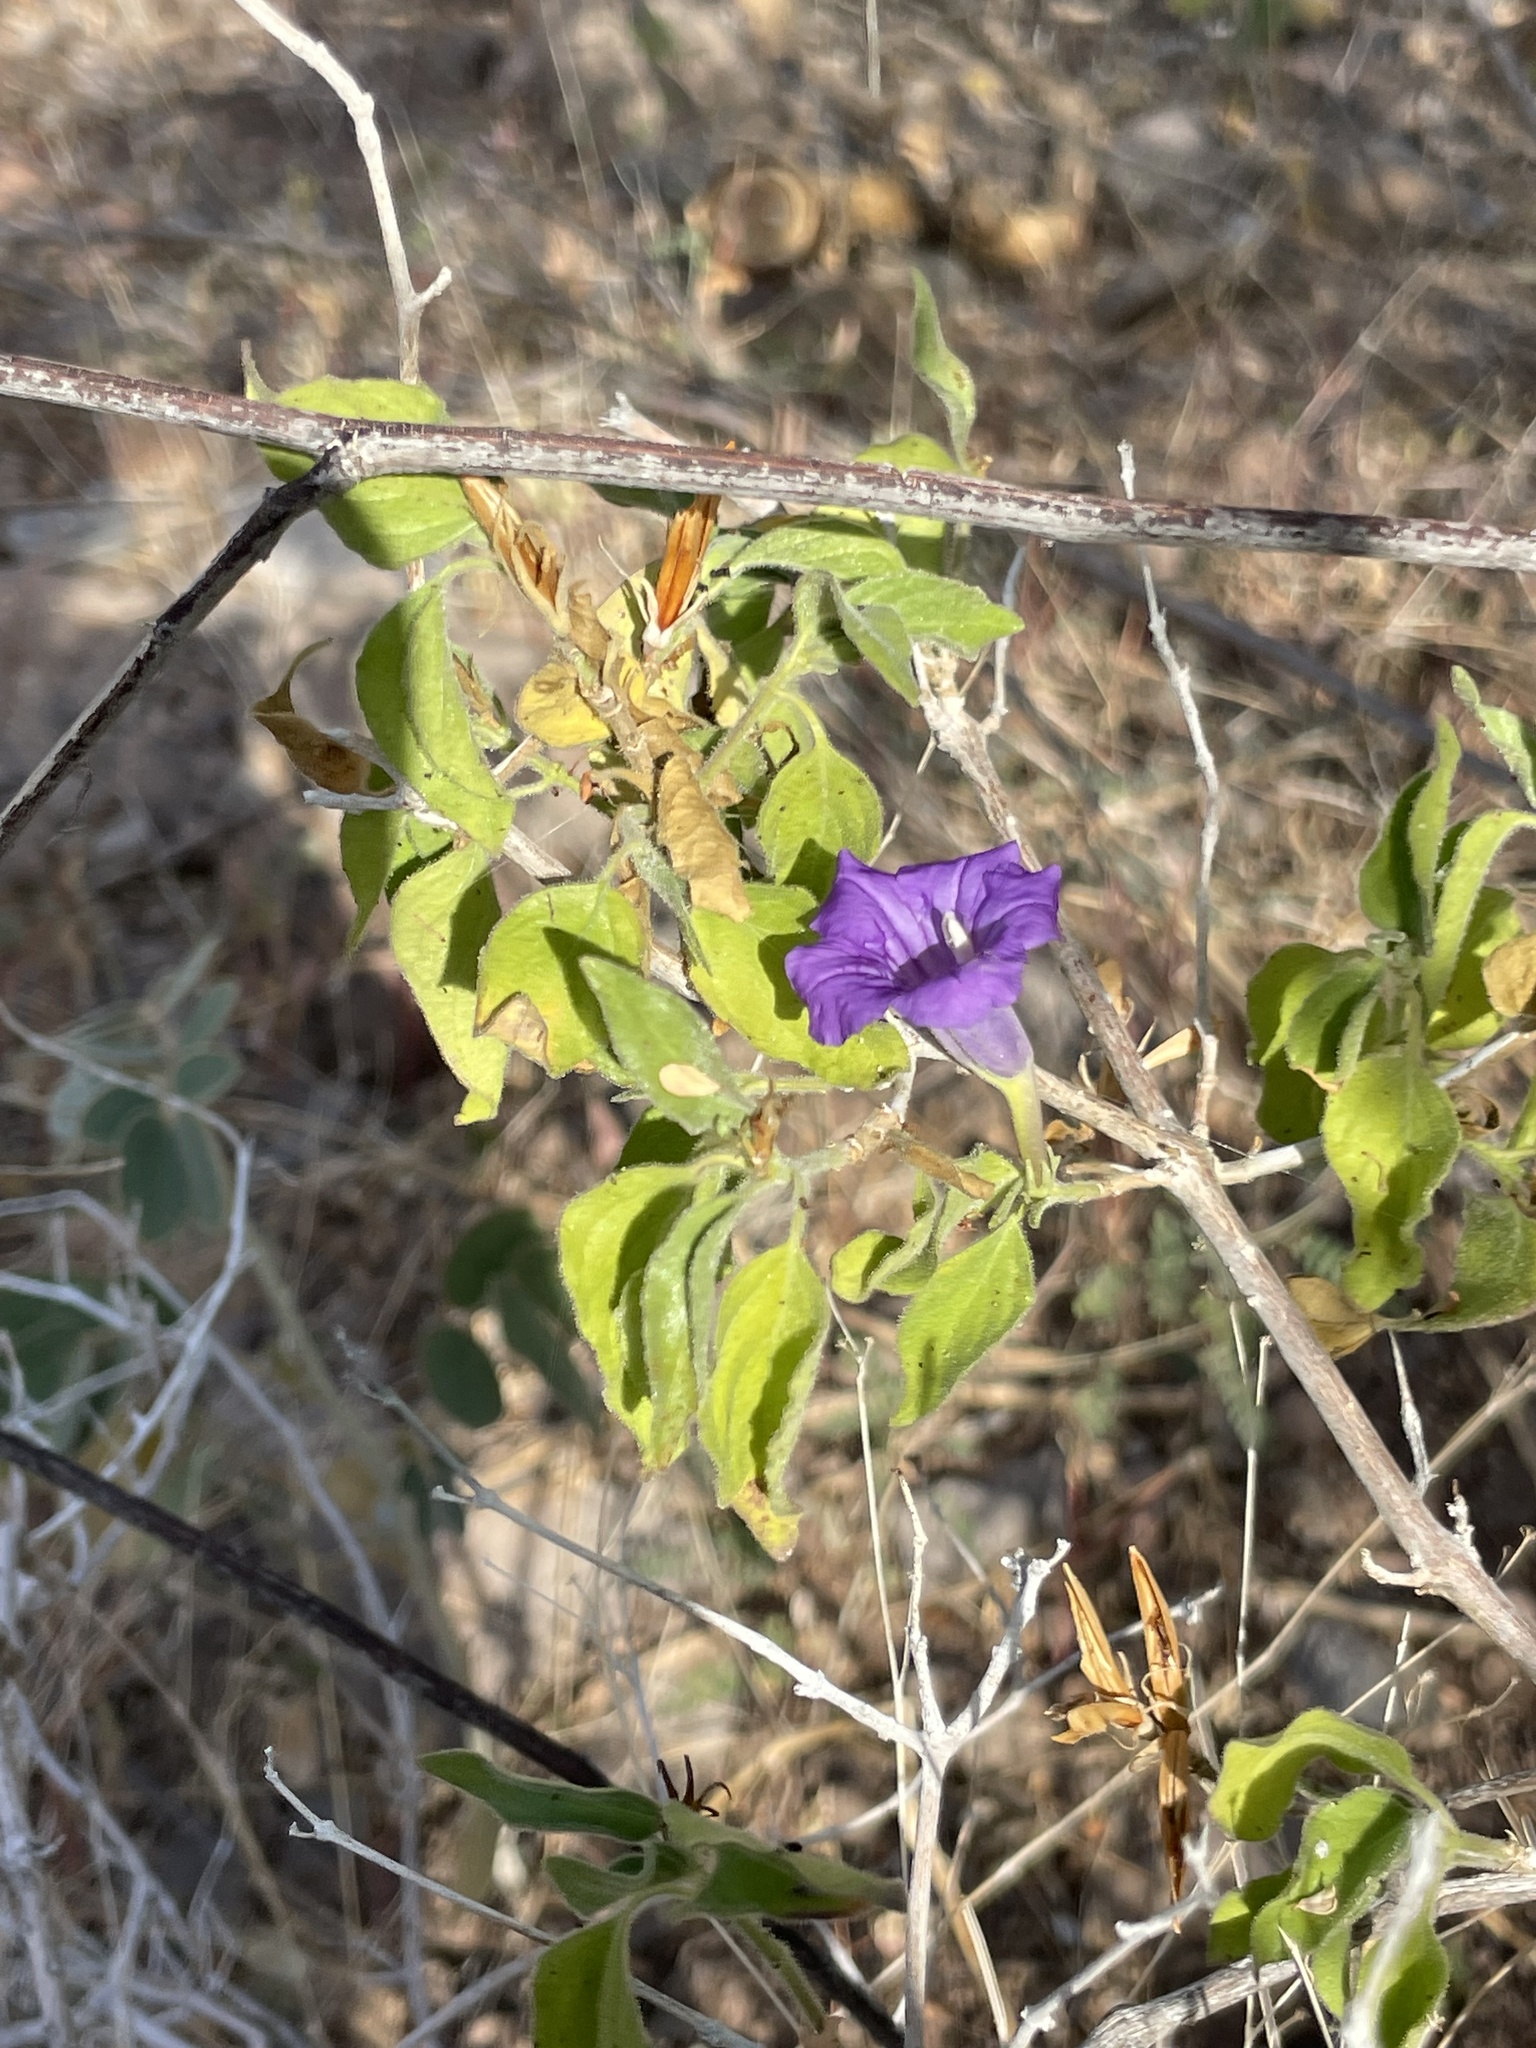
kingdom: Plantae
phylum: Tracheophyta
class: Magnoliopsida
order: Lamiales
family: Acanthaceae
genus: Ruellia
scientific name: Ruellia californica
